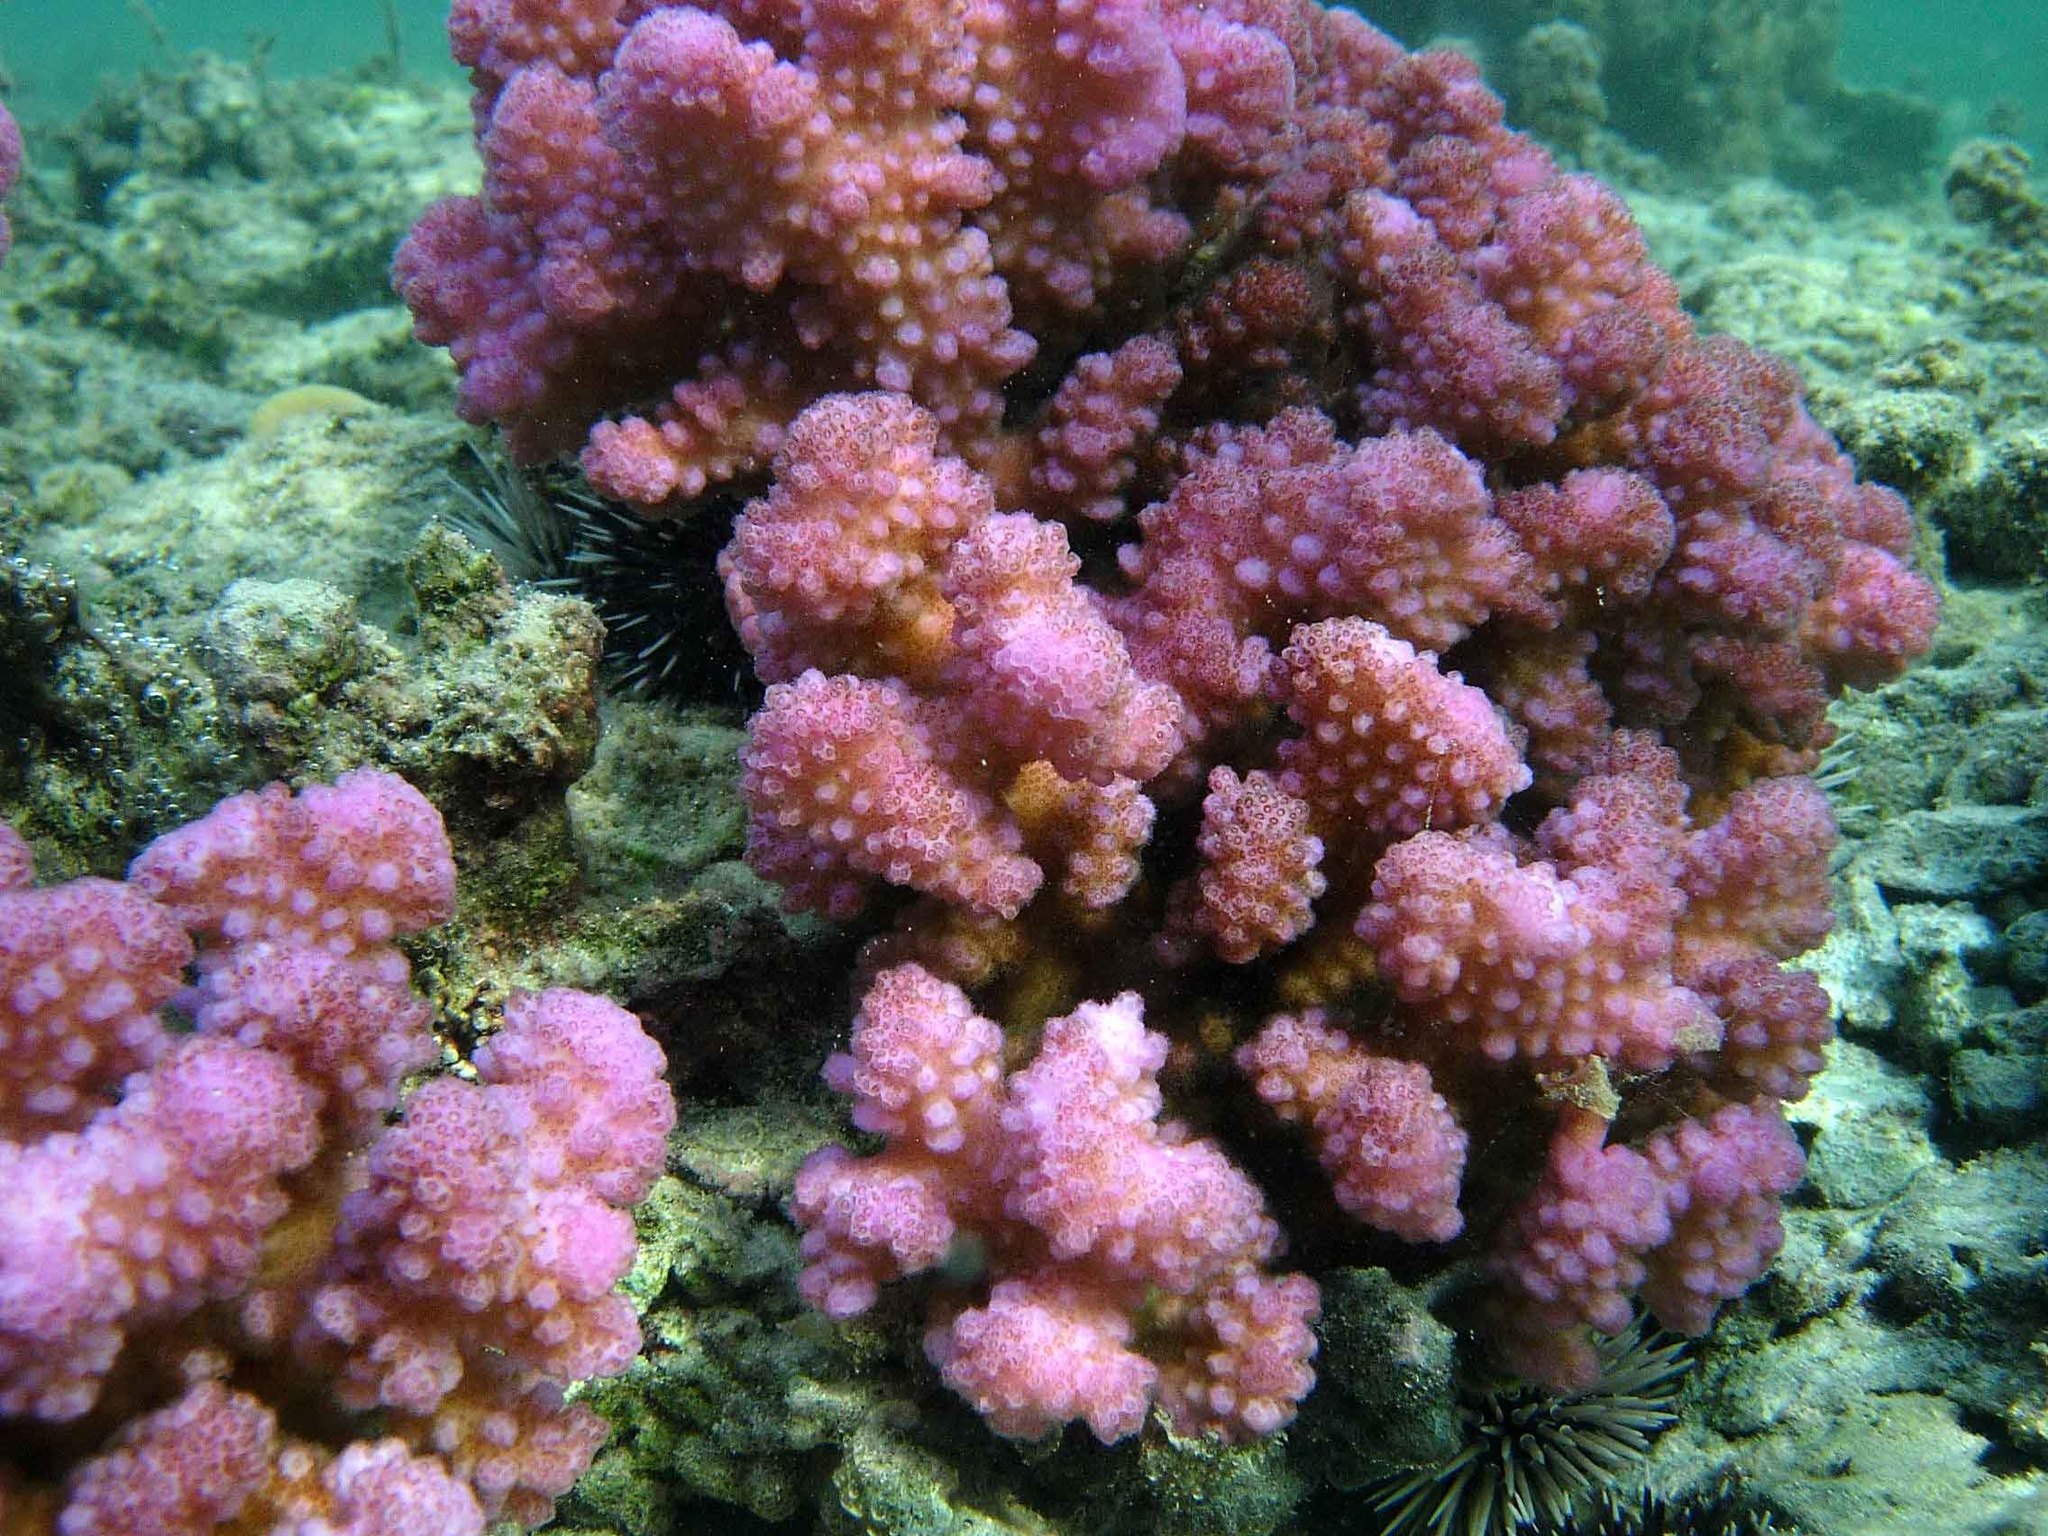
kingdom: Animalia
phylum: Cnidaria
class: Anthozoa
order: Scleractinia
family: Pocilloporidae
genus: Pocillopora
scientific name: Pocillopora verrucosa
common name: Cauliflower coral
